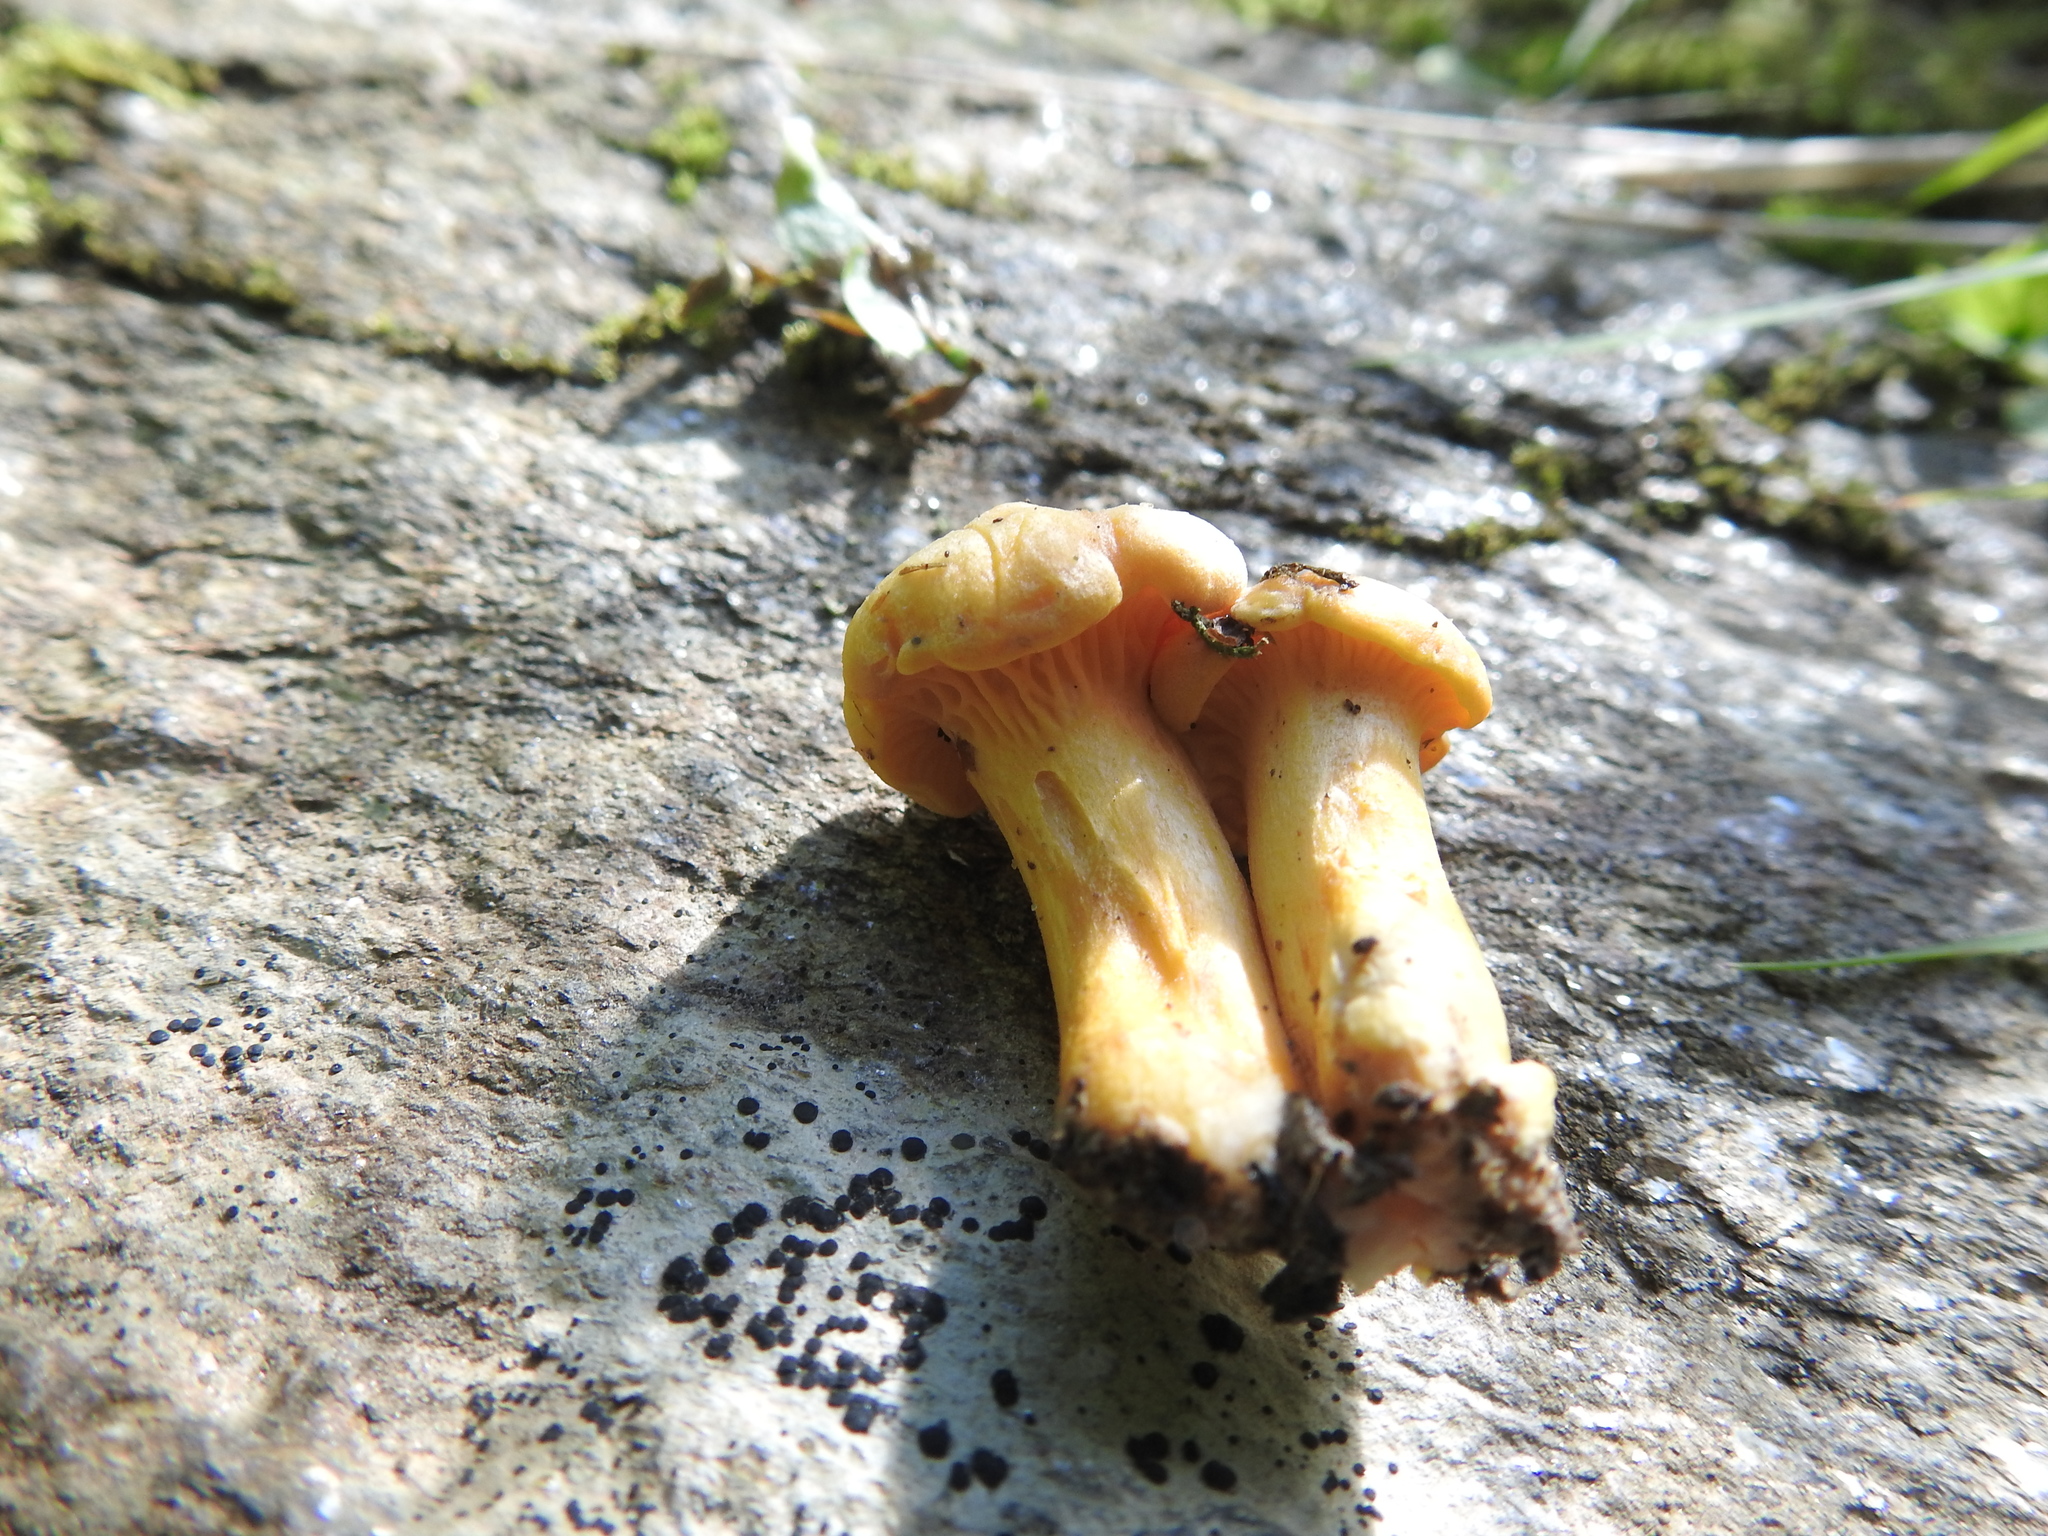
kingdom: Fungi
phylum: Basidiomycota
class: Agaricomycetes
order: Cantharellales
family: Hydnaceae
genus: Cantharellus
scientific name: Cantharellus cibarius
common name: Chanterelle
